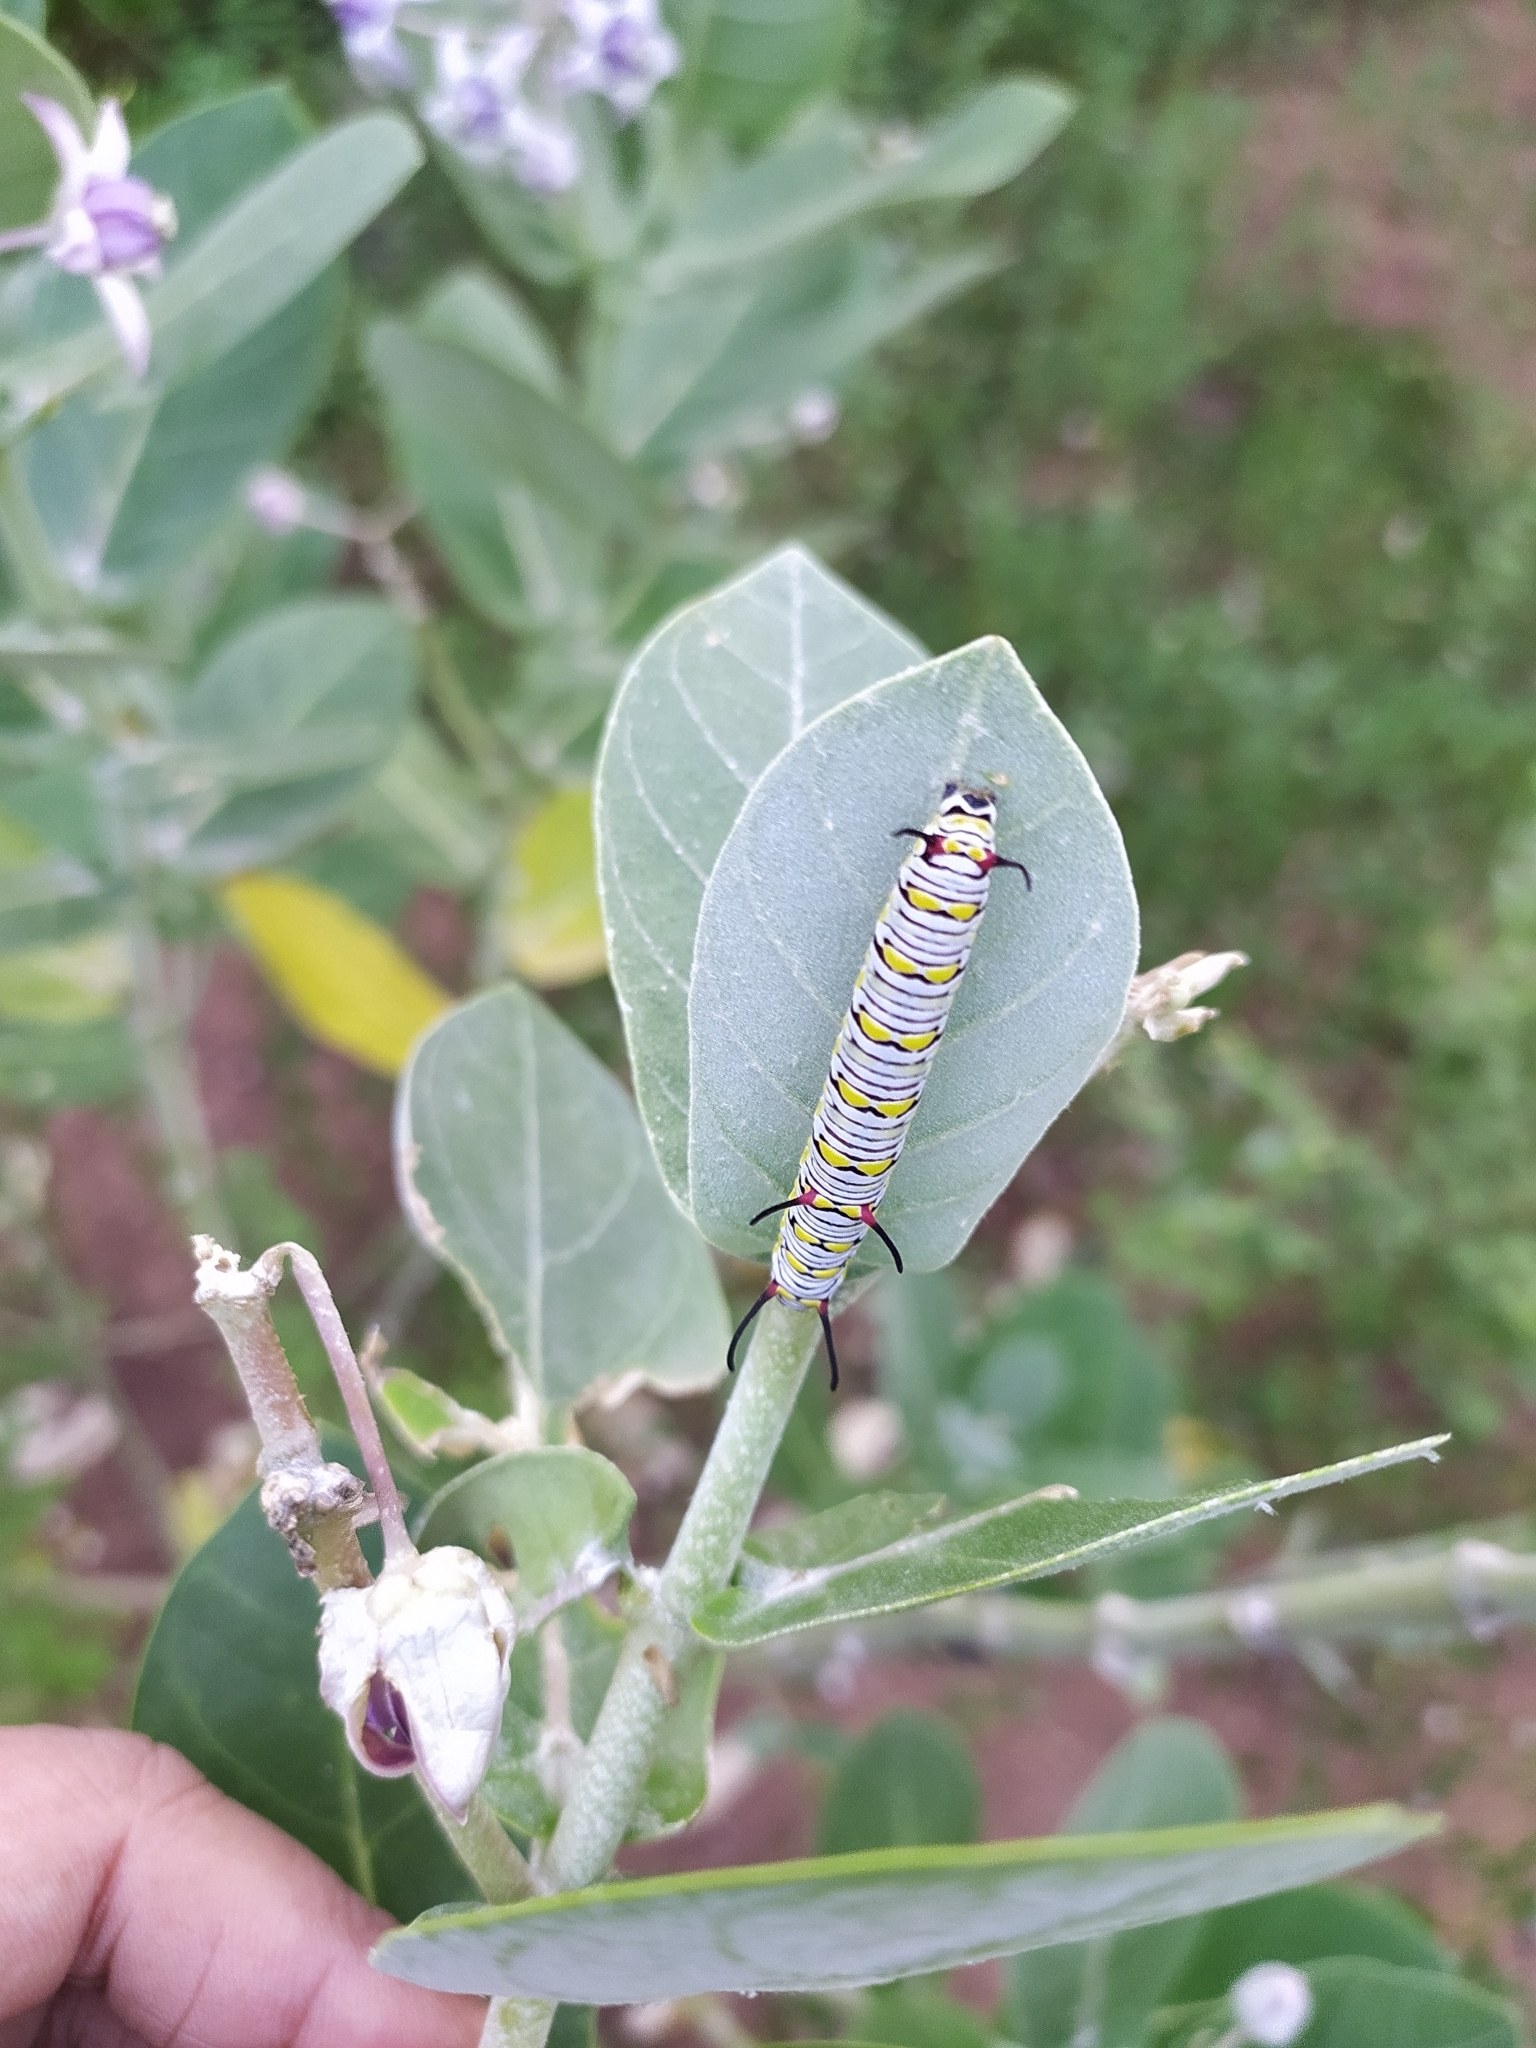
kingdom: Animalia
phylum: Arthropoda
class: Insecta
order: Lepidoptera
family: Nymphalidae
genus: Danaus
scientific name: Danaus chrysippus
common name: Plain tiger
